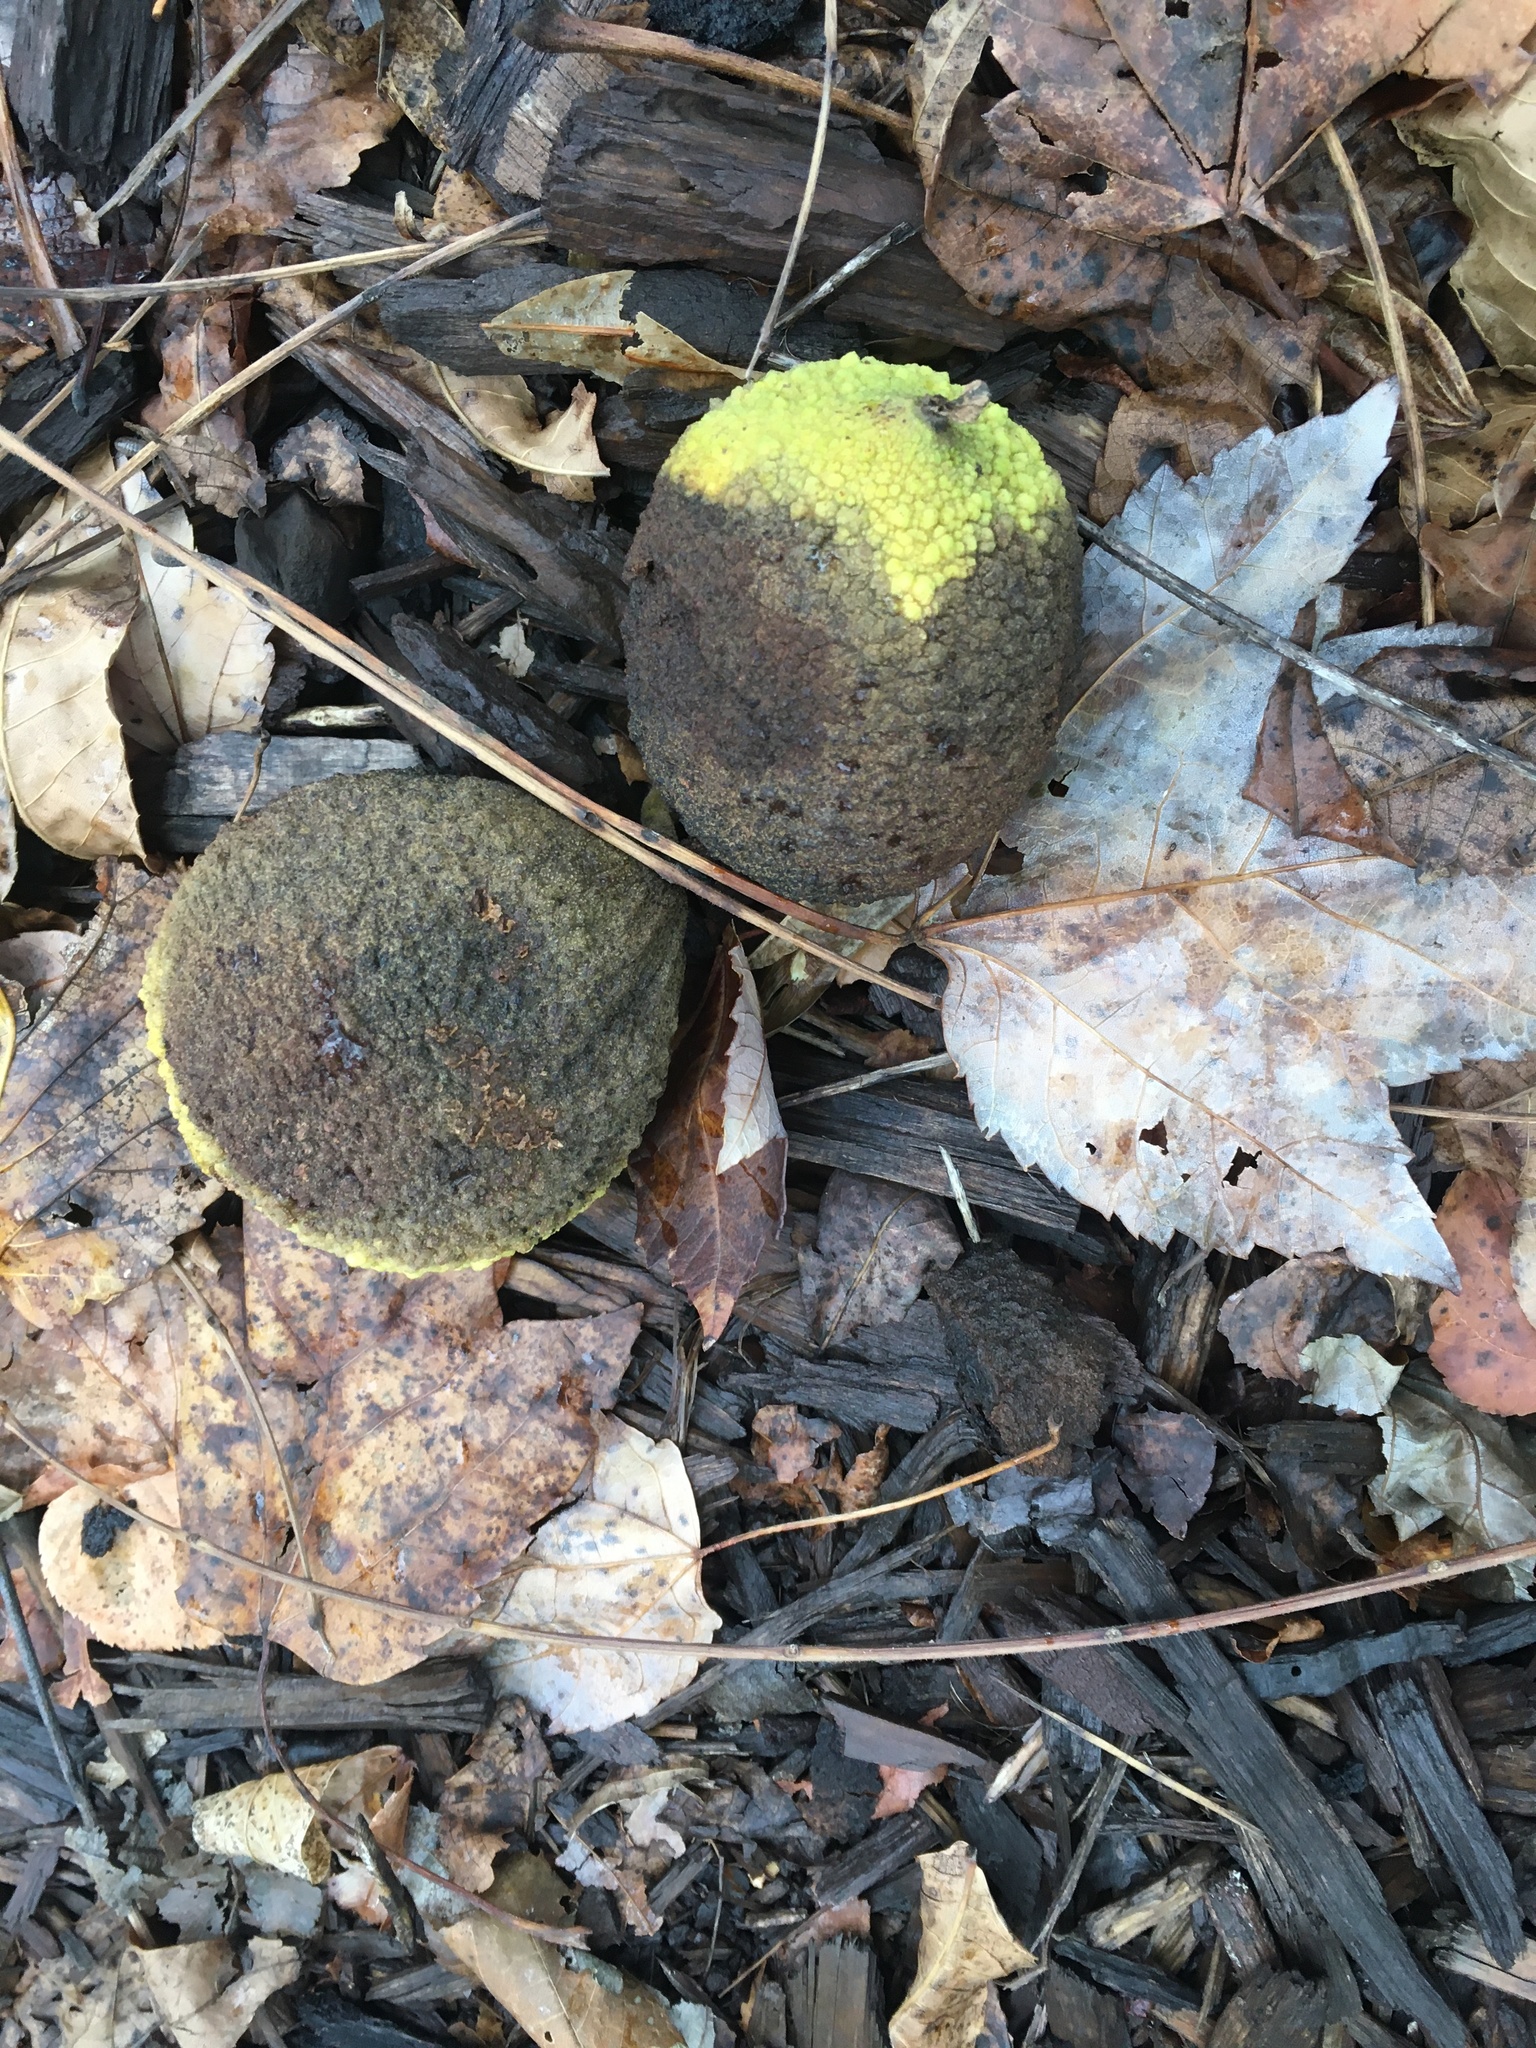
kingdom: Plantae
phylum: Tracheophyta
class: Magnoliopsida
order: Fagales
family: Juglandaceae
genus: Juglans
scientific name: Juglans nigra
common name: Black walnut
